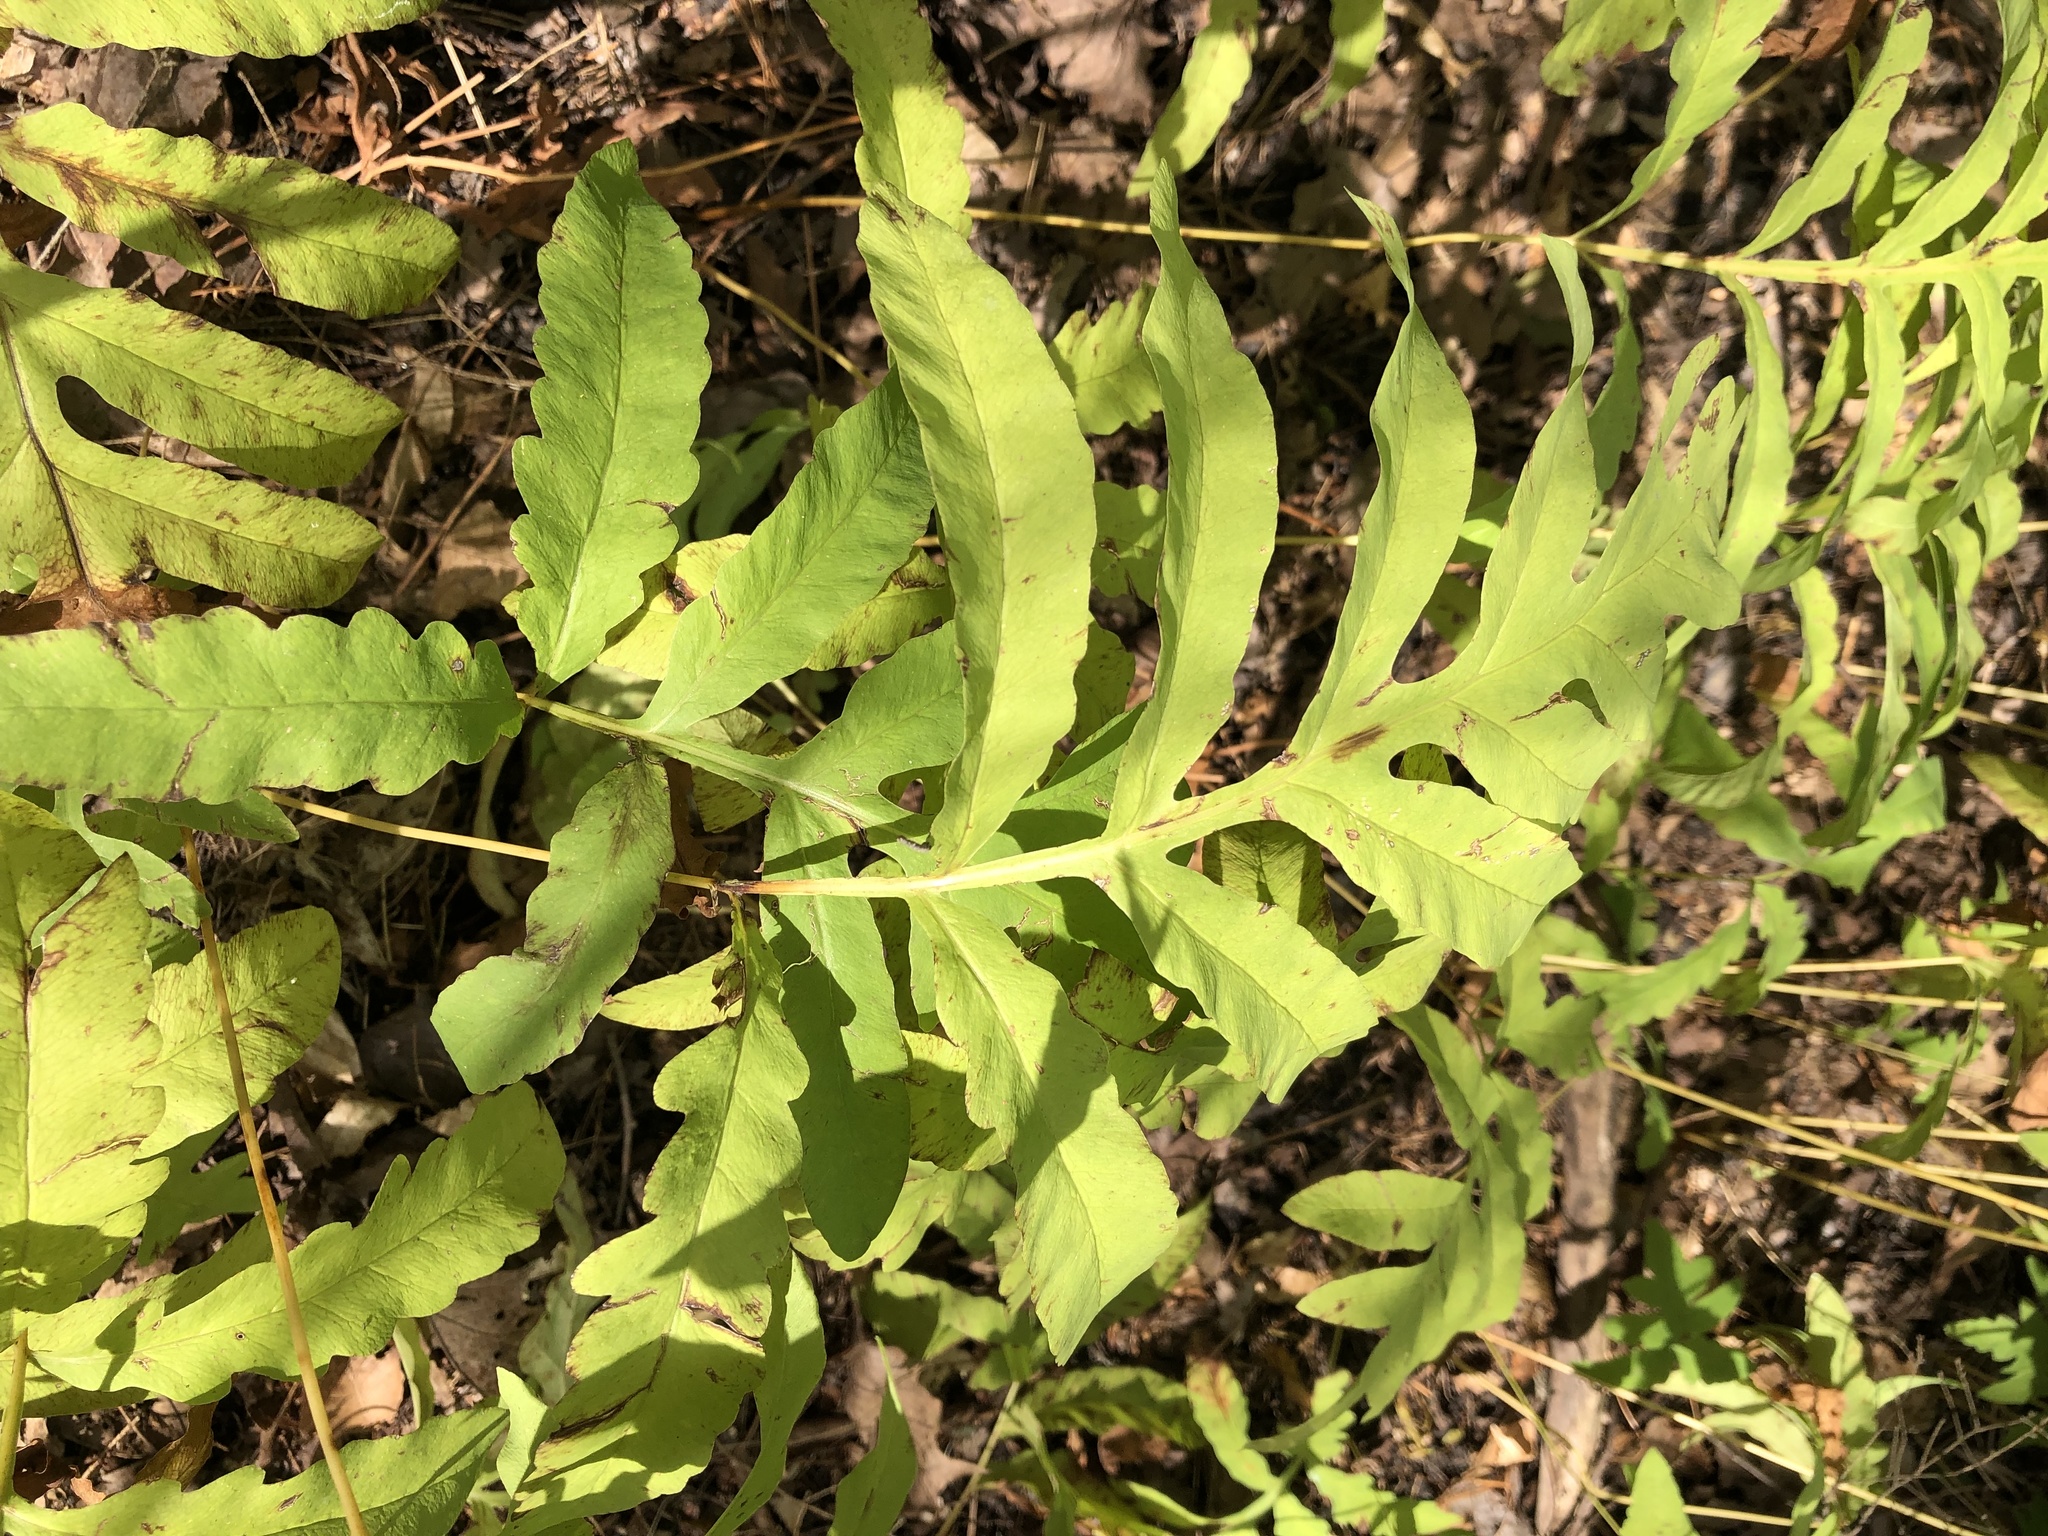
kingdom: Plantae
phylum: Tracheophyta
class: Polypodiopsida
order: Polypodiales
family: Onocleaceae
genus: Onoclea
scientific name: Onoclea sensibilis
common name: Sensitive fern
